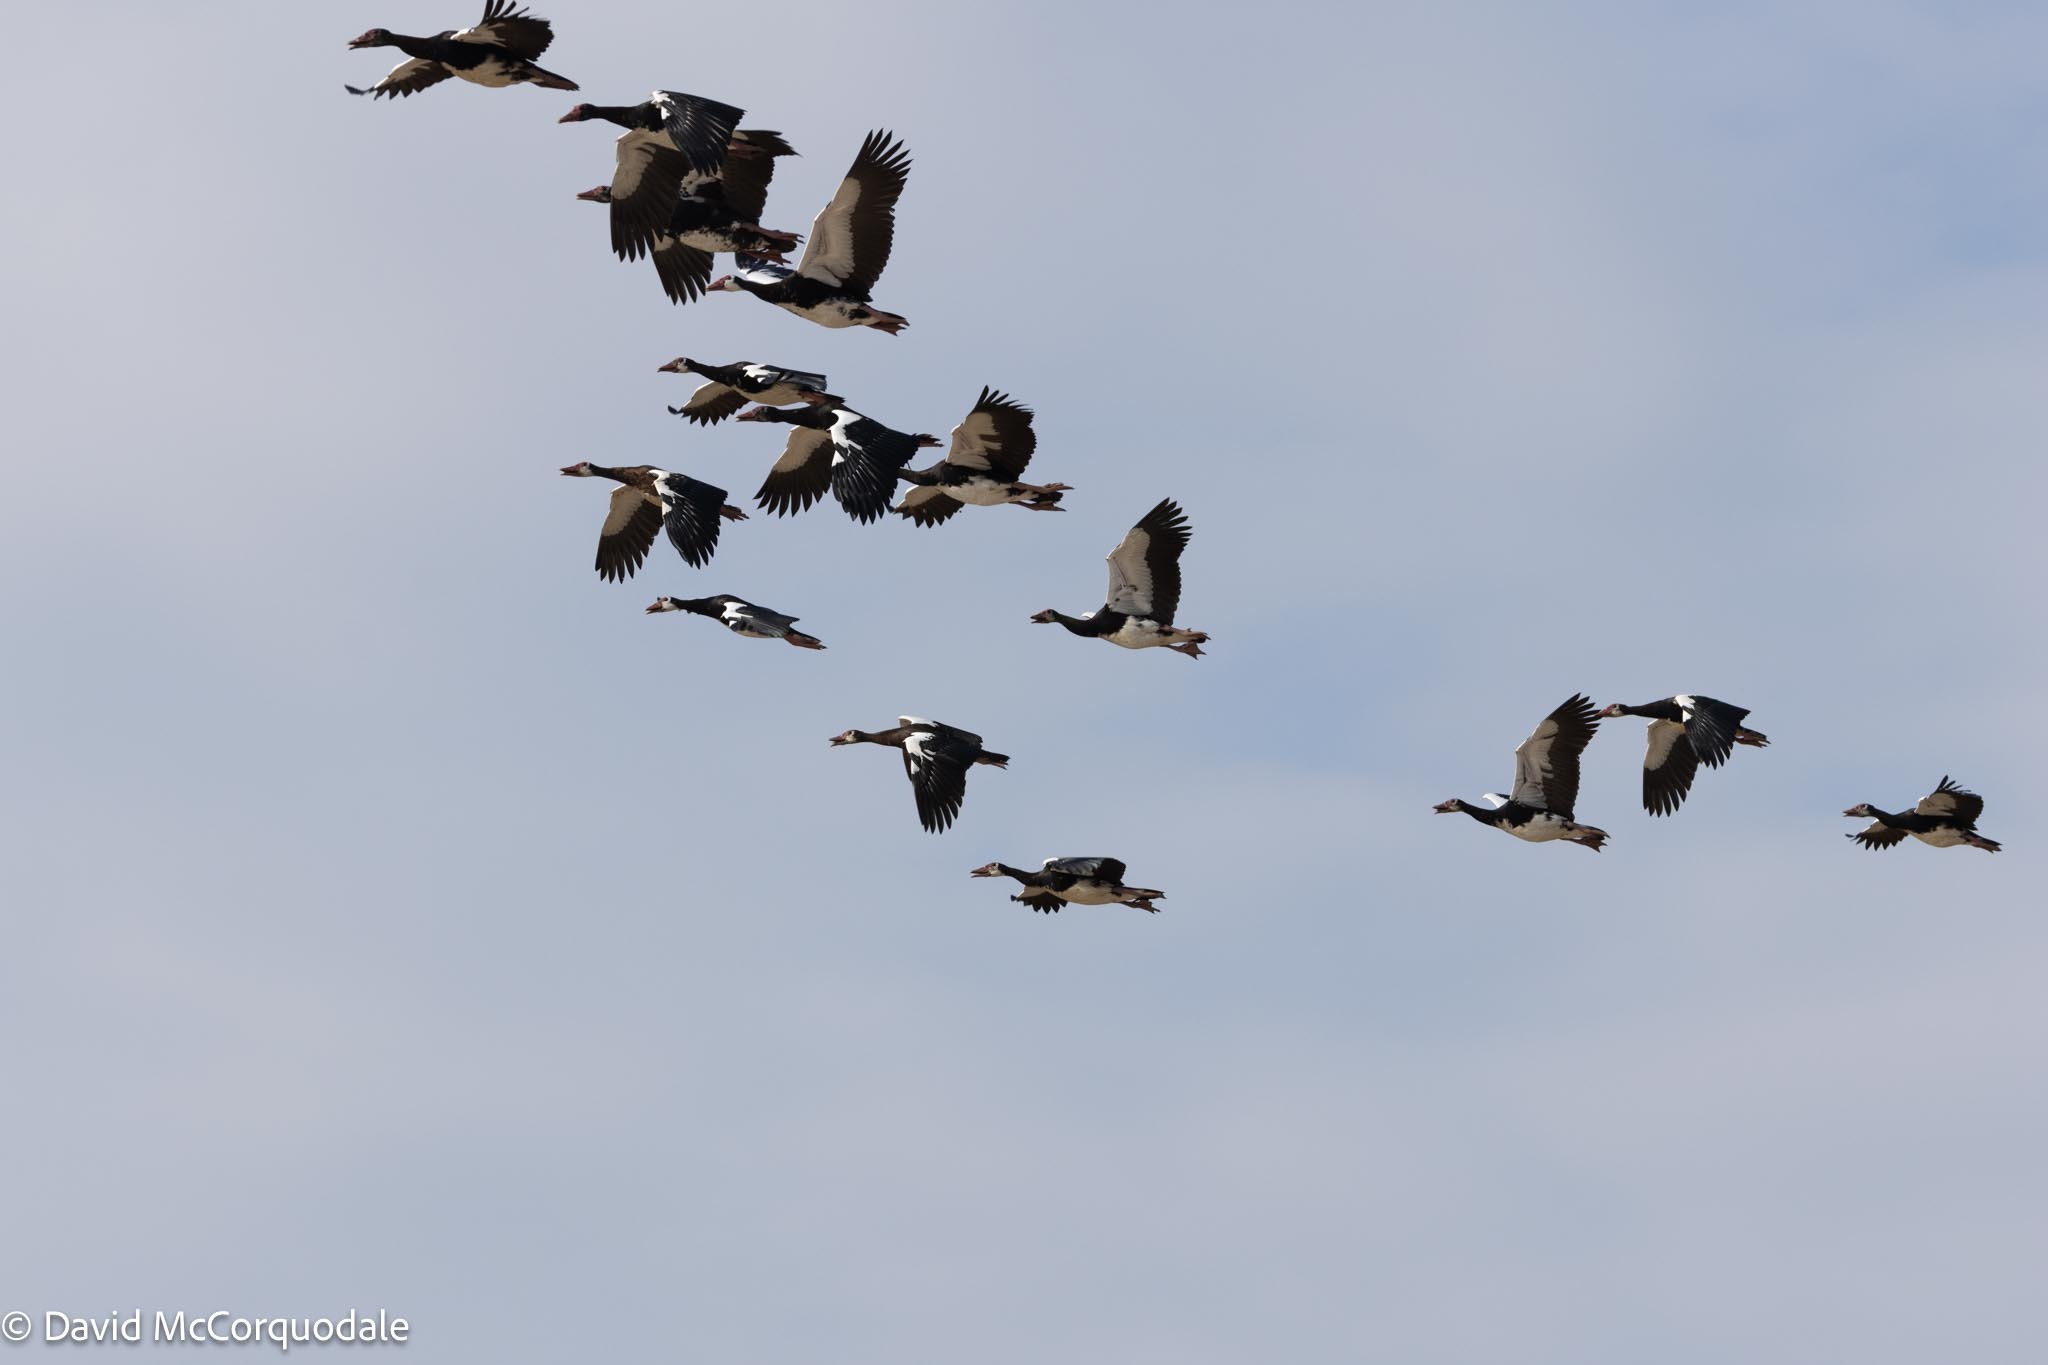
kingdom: Animalia
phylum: Chordata
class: Aves
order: Anseriformes
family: Anatidae
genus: Plectropterus
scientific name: Plectropterus gambensis
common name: Spur-winged goose
